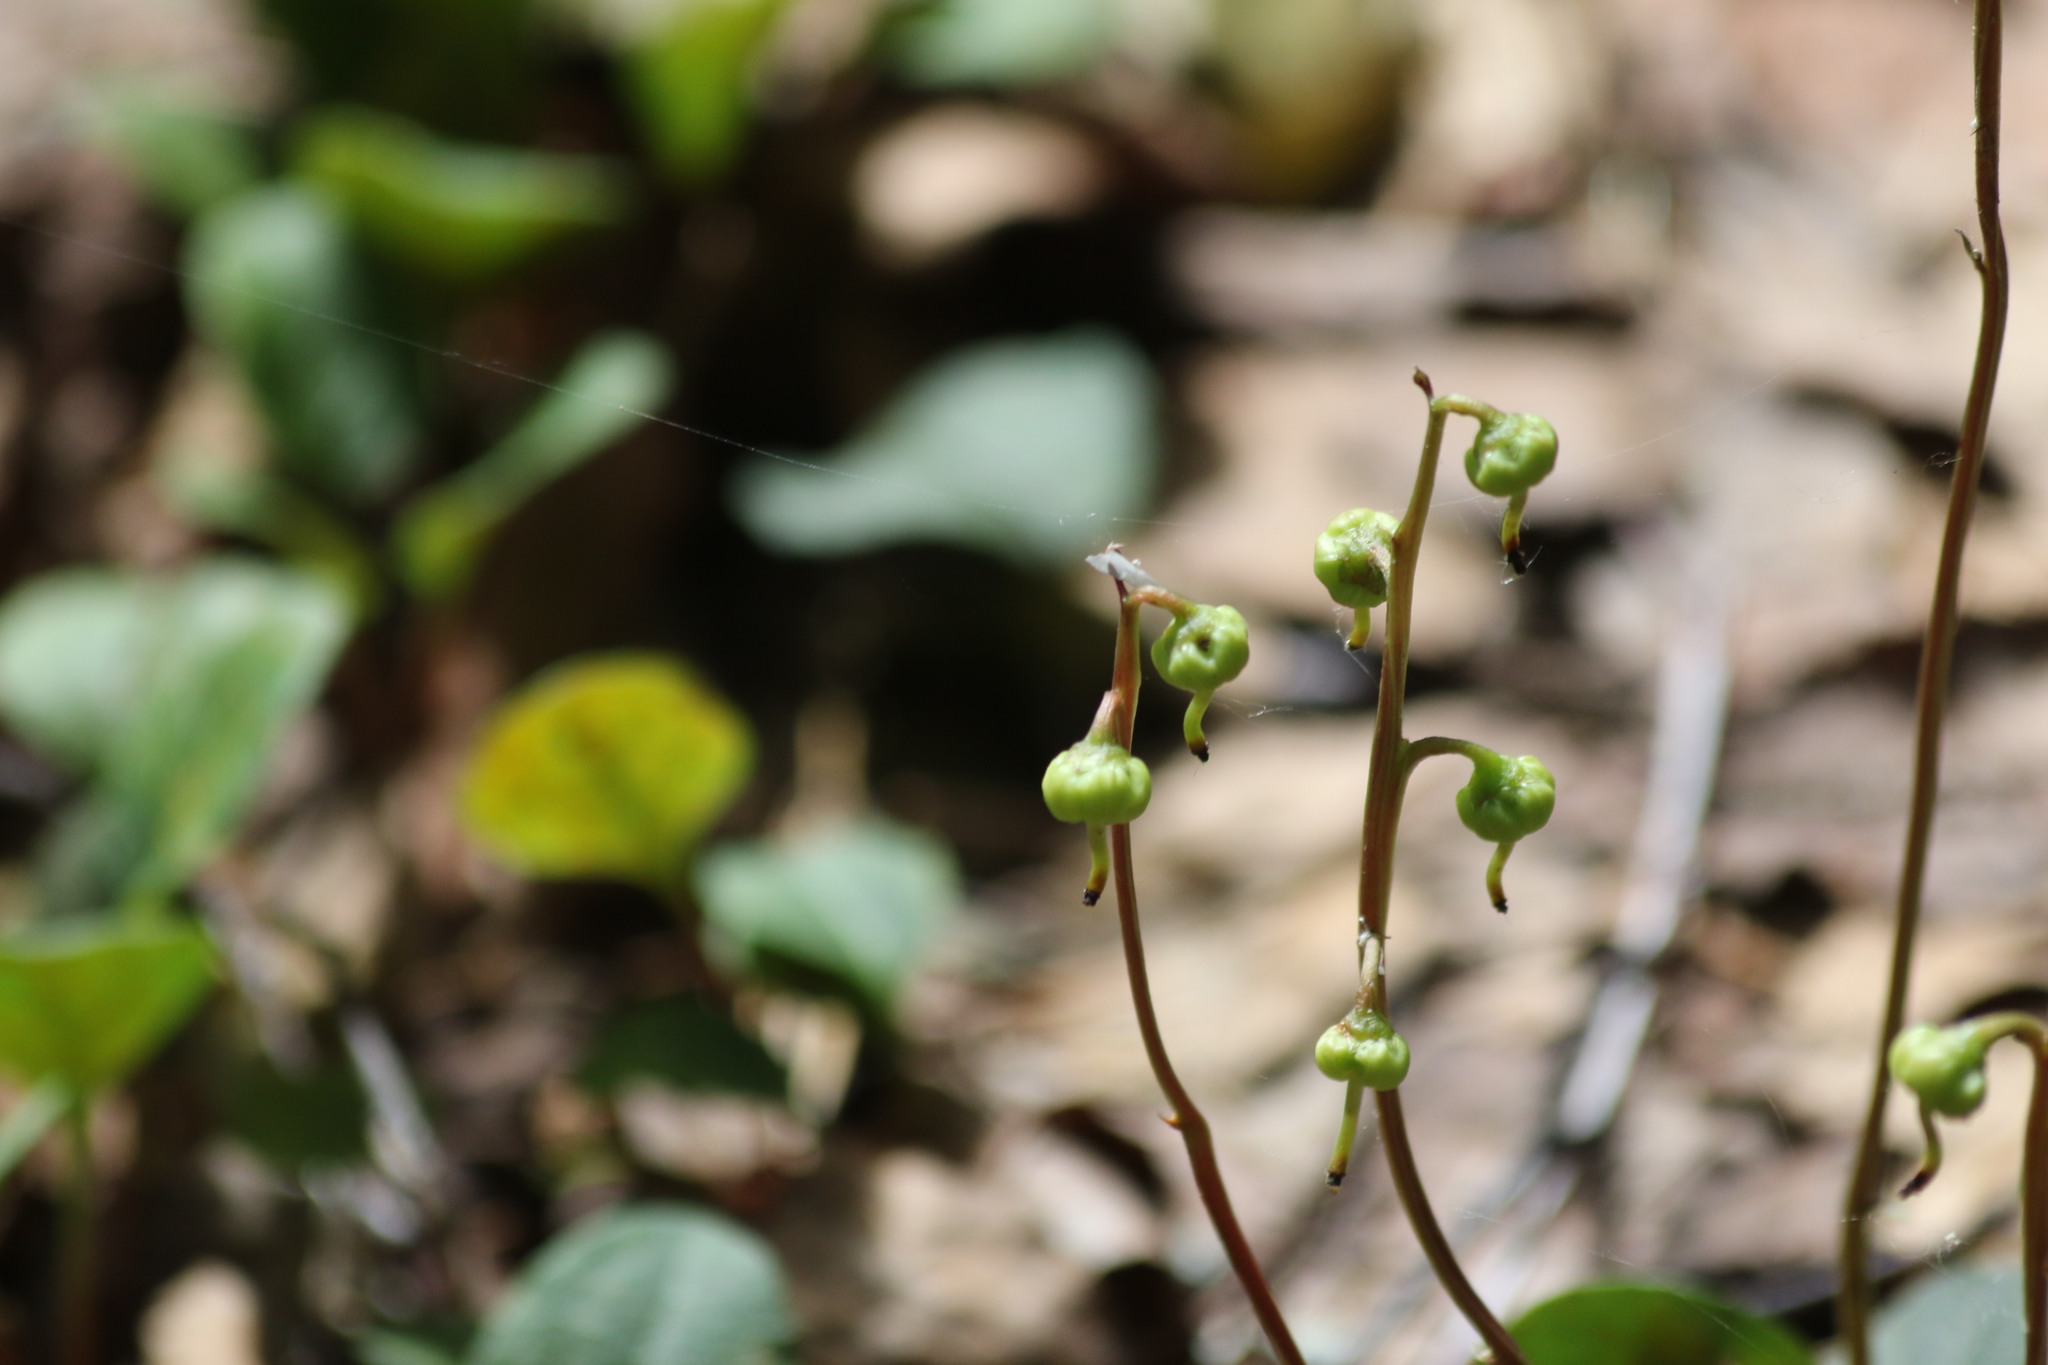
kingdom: Plantae
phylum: Tracheophyta
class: Magnoliopsida
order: Ericales
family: Ericaceae
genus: Pyrola
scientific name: Pyrola chlorantha
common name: Green wintergreen
